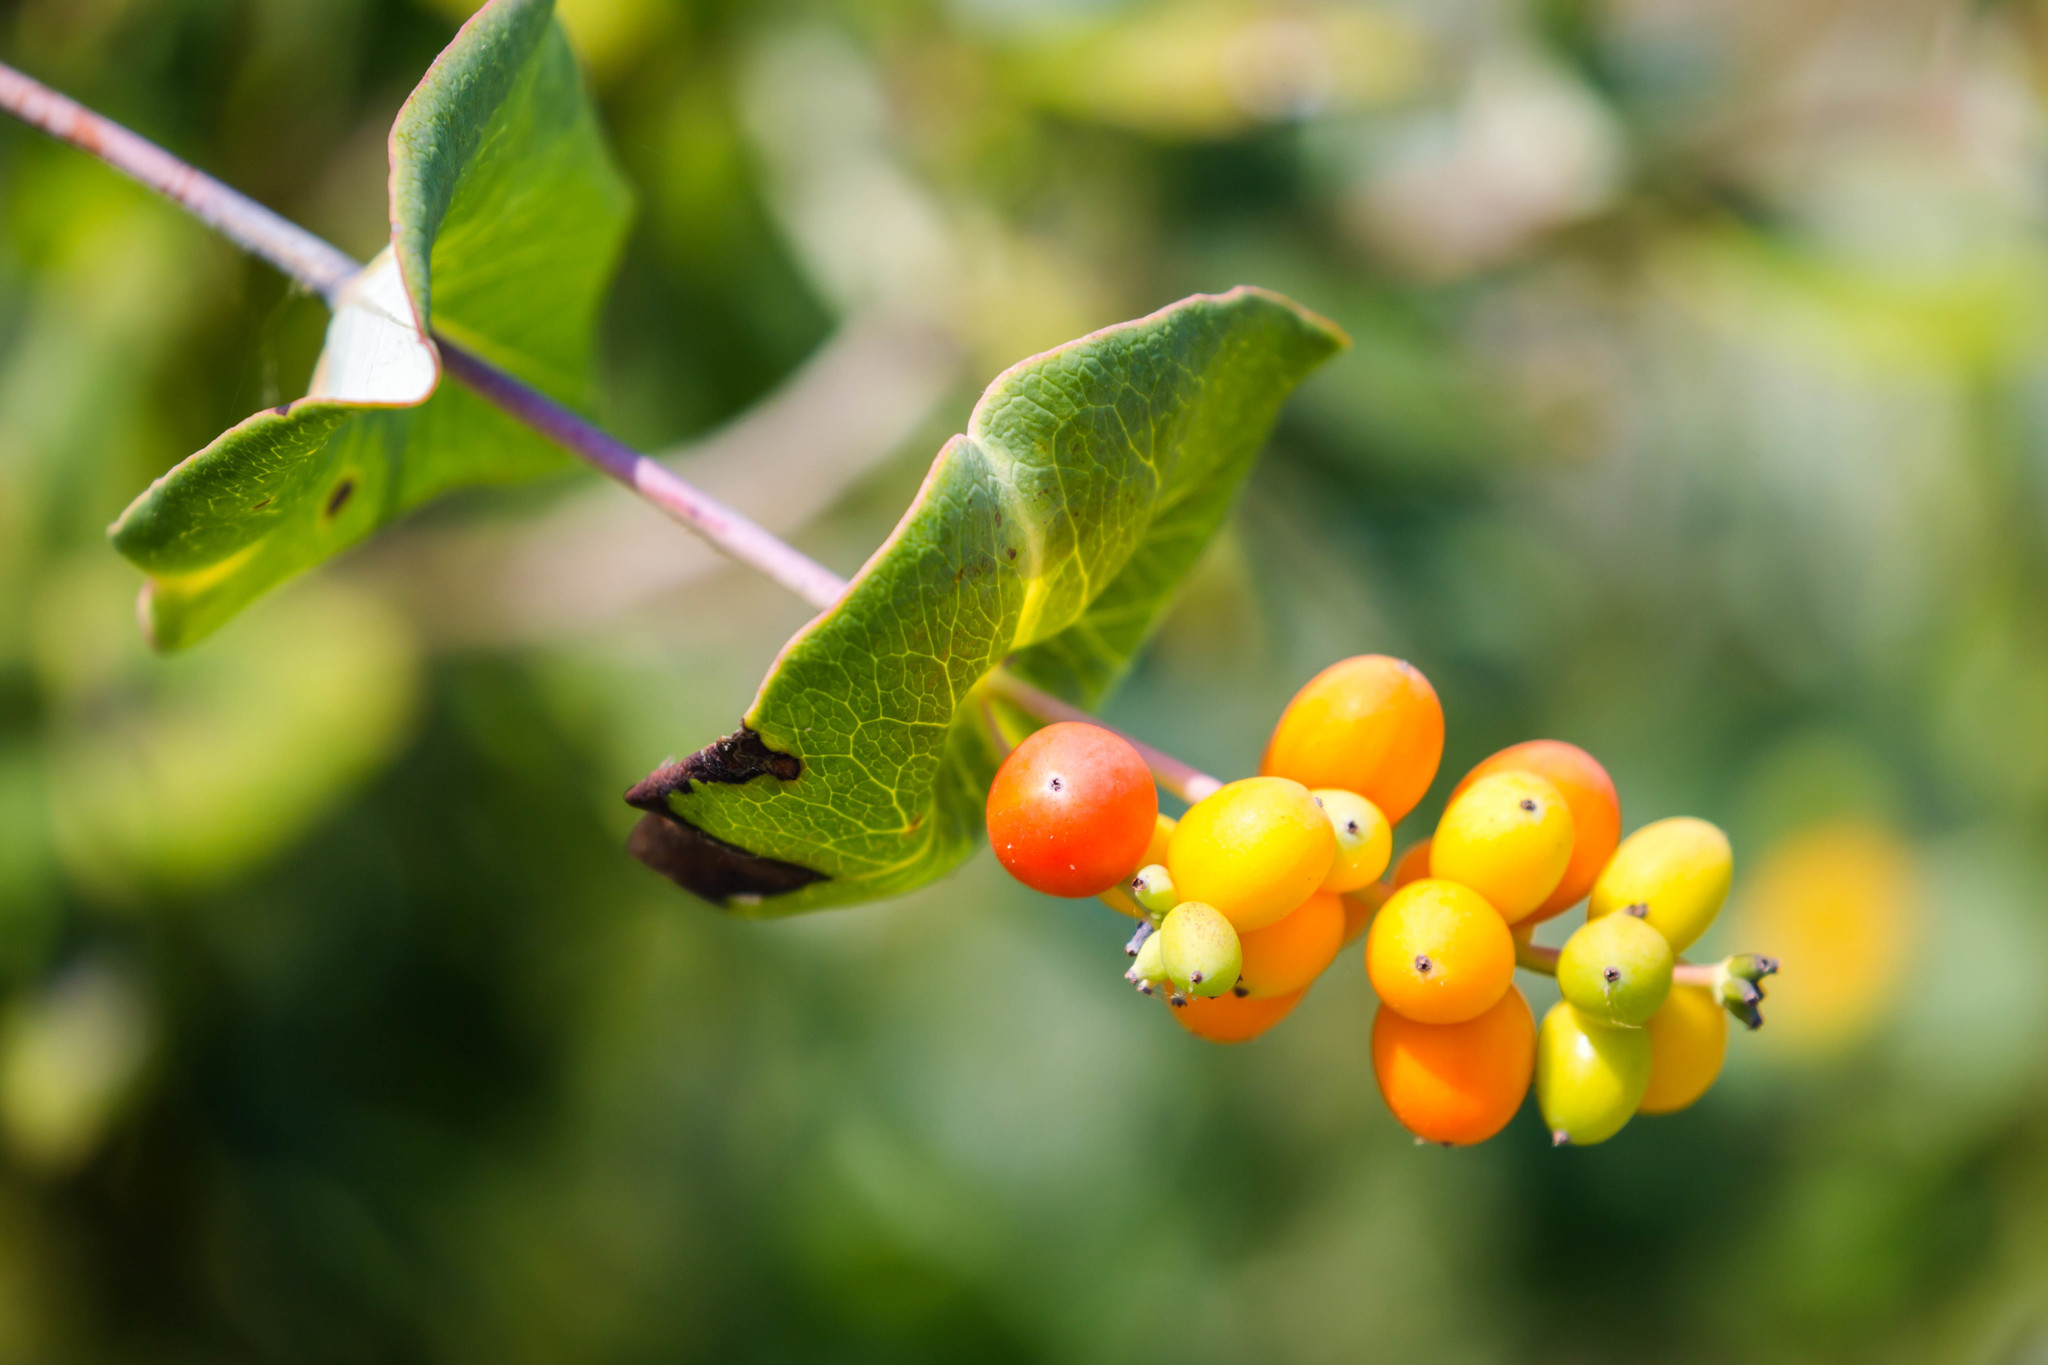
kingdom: Plantae
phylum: Tracheophyta
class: Magnoliopsida
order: Dipsacales
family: Caprifoliaceae
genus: Lonicera
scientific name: Lonicera sempervirens
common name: Coral honeysuckle
